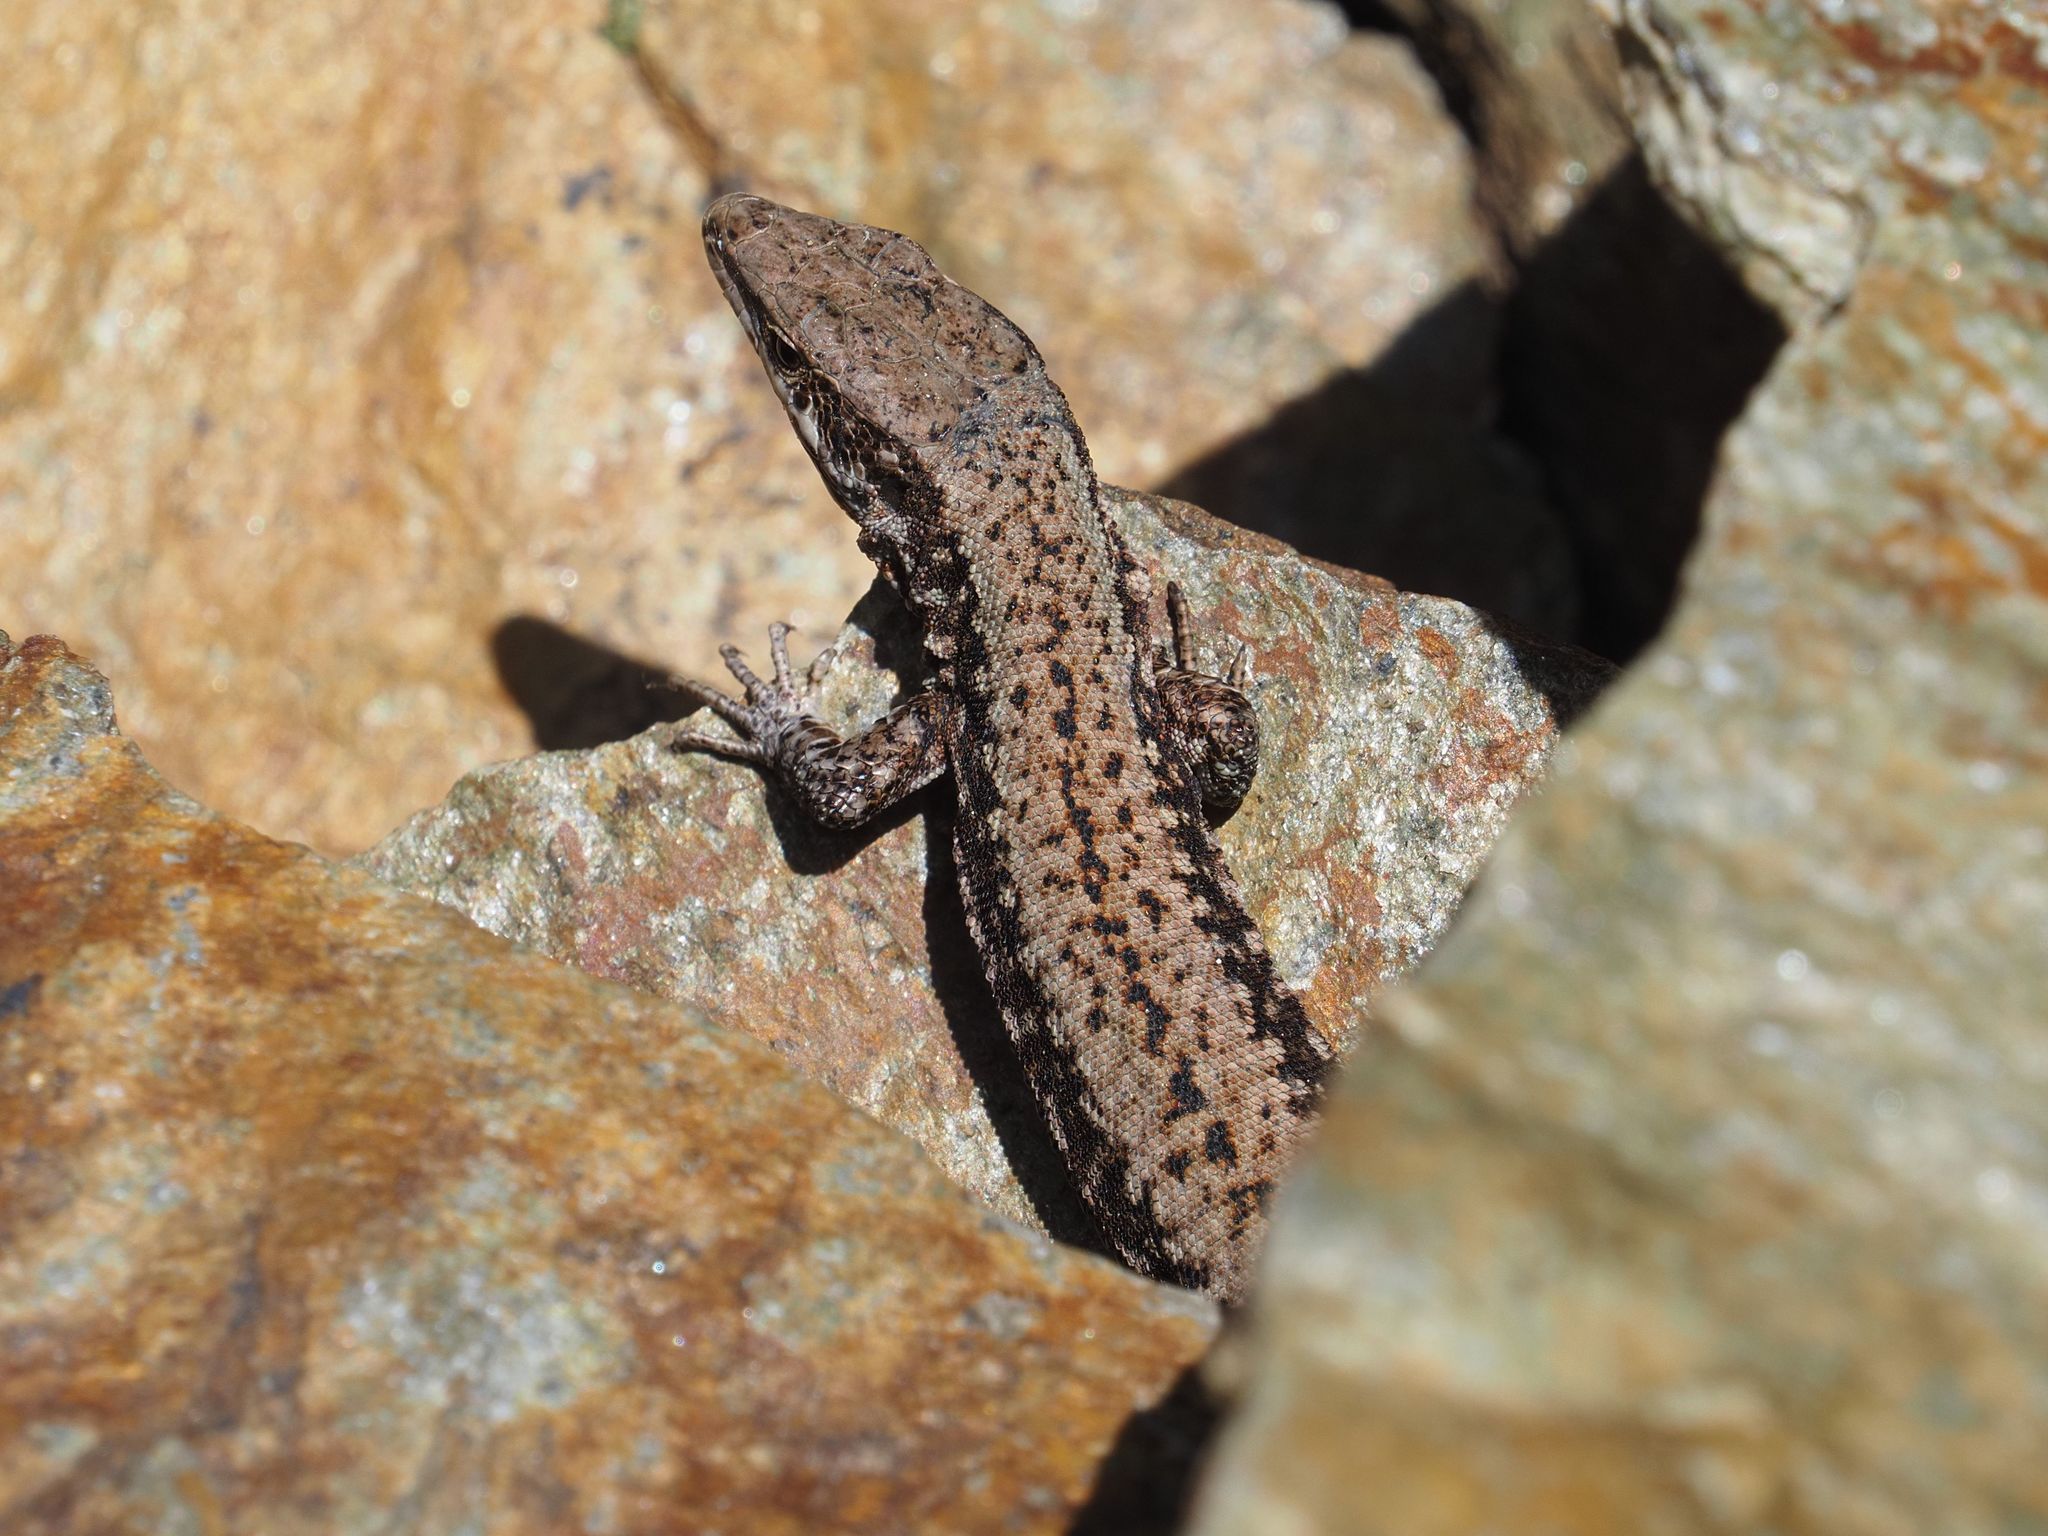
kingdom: Animalia
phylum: Chordata
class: Squamata
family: Lacertidae
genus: Podarcis
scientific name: Podarcis muralis
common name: Common wall lizard
